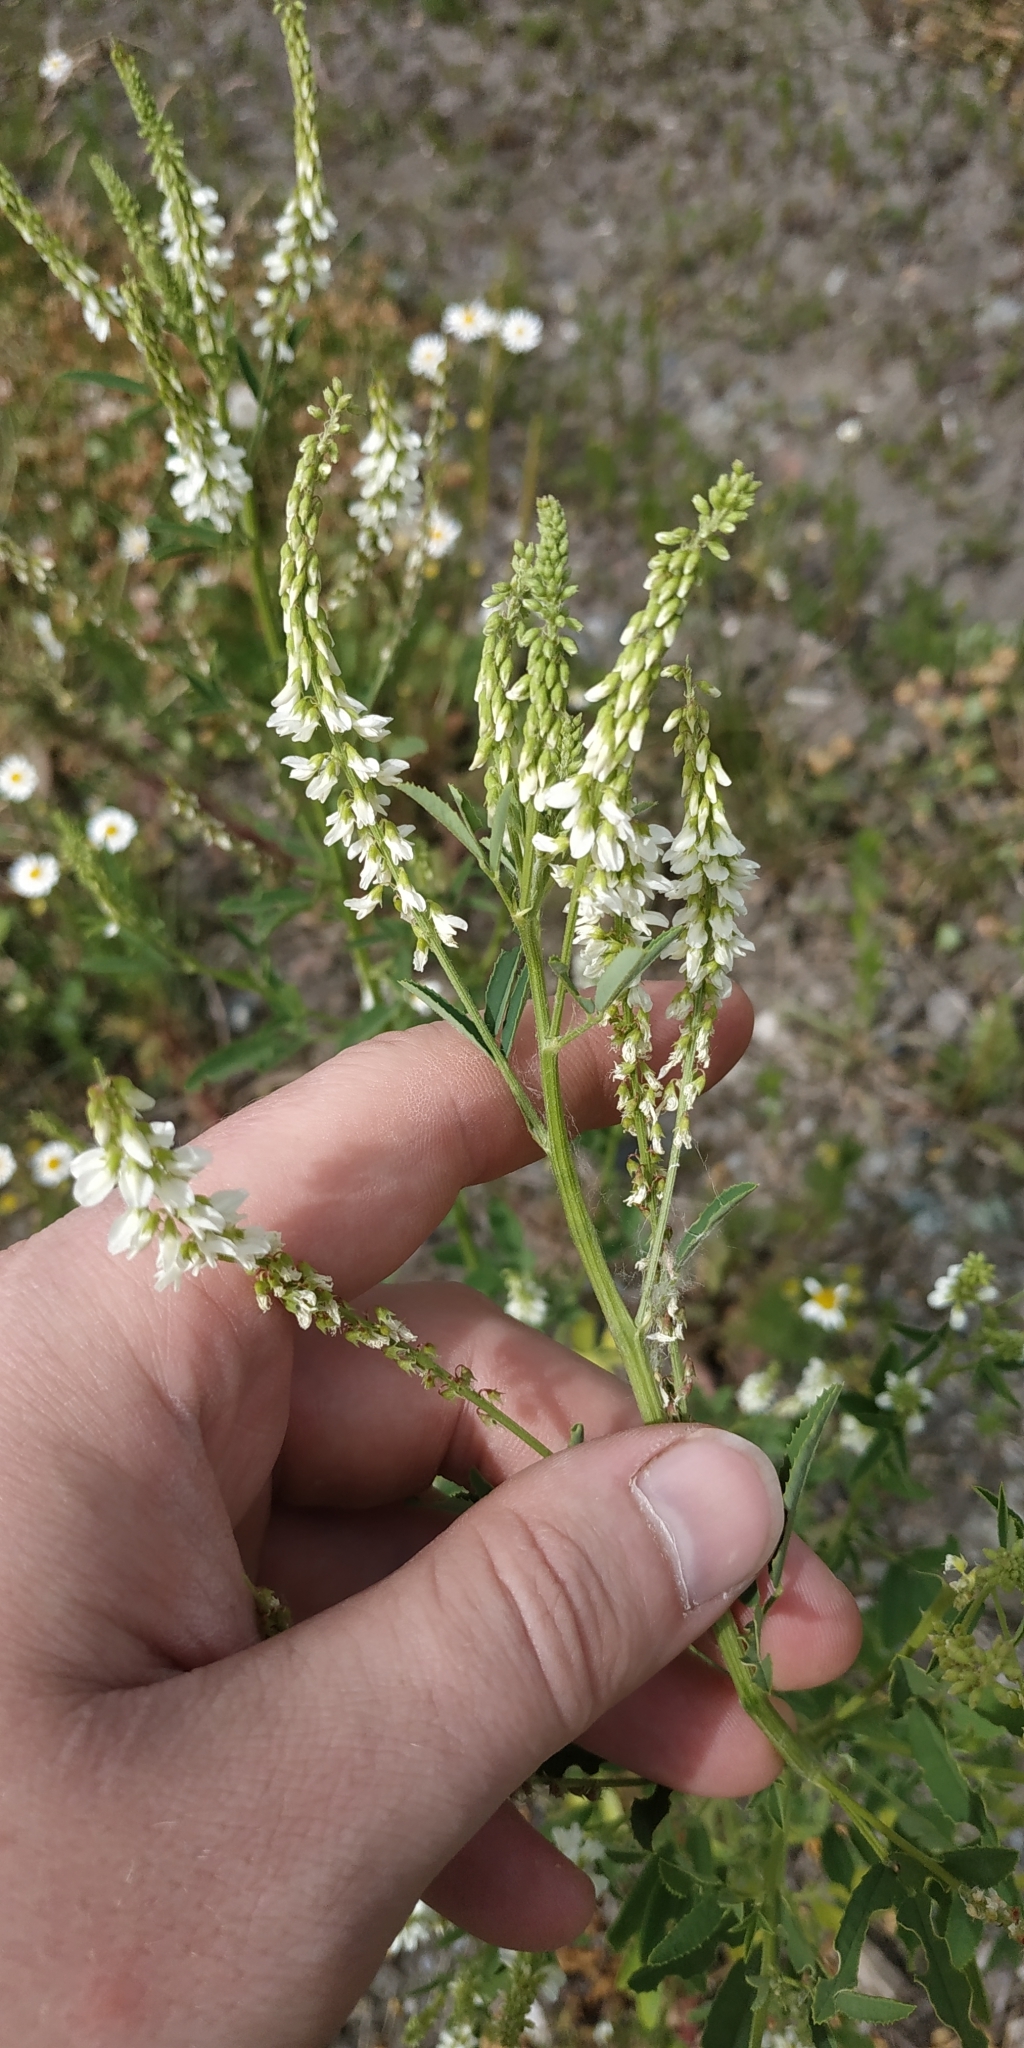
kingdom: Plantae
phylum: Tracheophyta
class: Magnoliopsida
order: Fabales
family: Fabaceae
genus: Melilotus
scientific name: Melilotus albus
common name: White melilot
